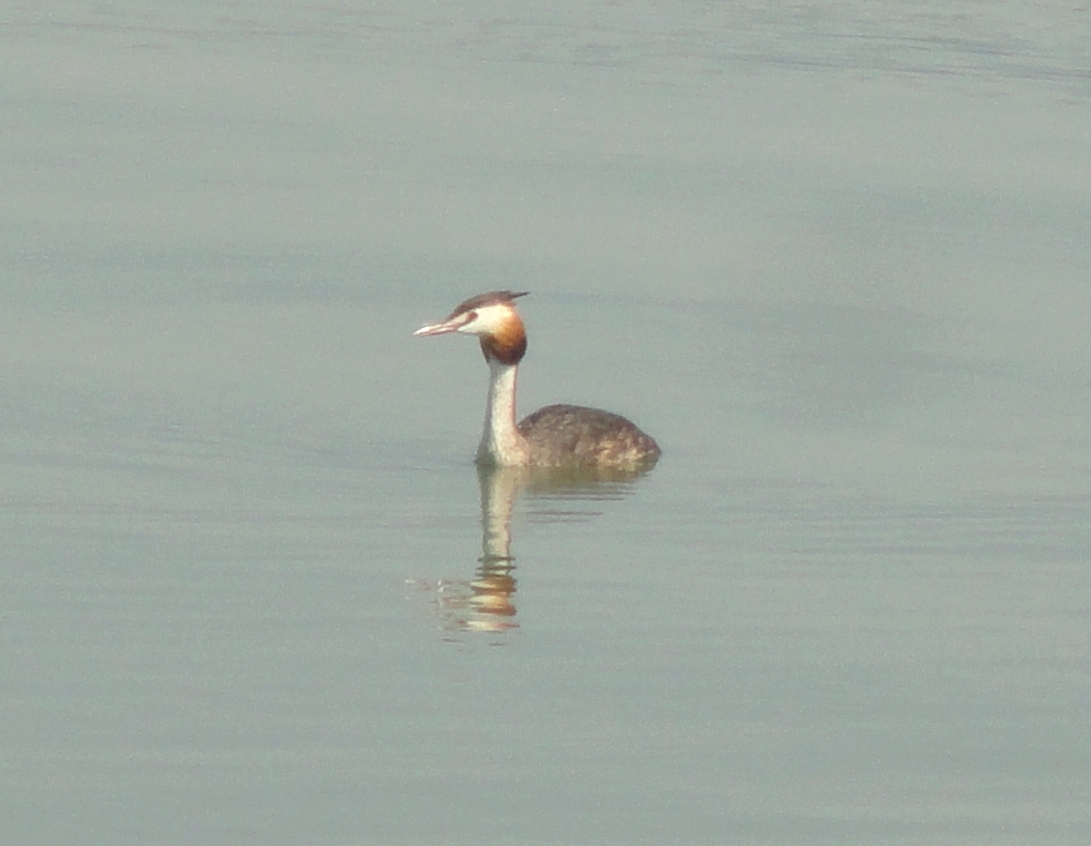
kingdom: Animalia
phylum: Chordata
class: Aves
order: Podicipediformes
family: Podicipedidae
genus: Podiceps
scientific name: Podiceps cristatus
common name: Great crested grebe
